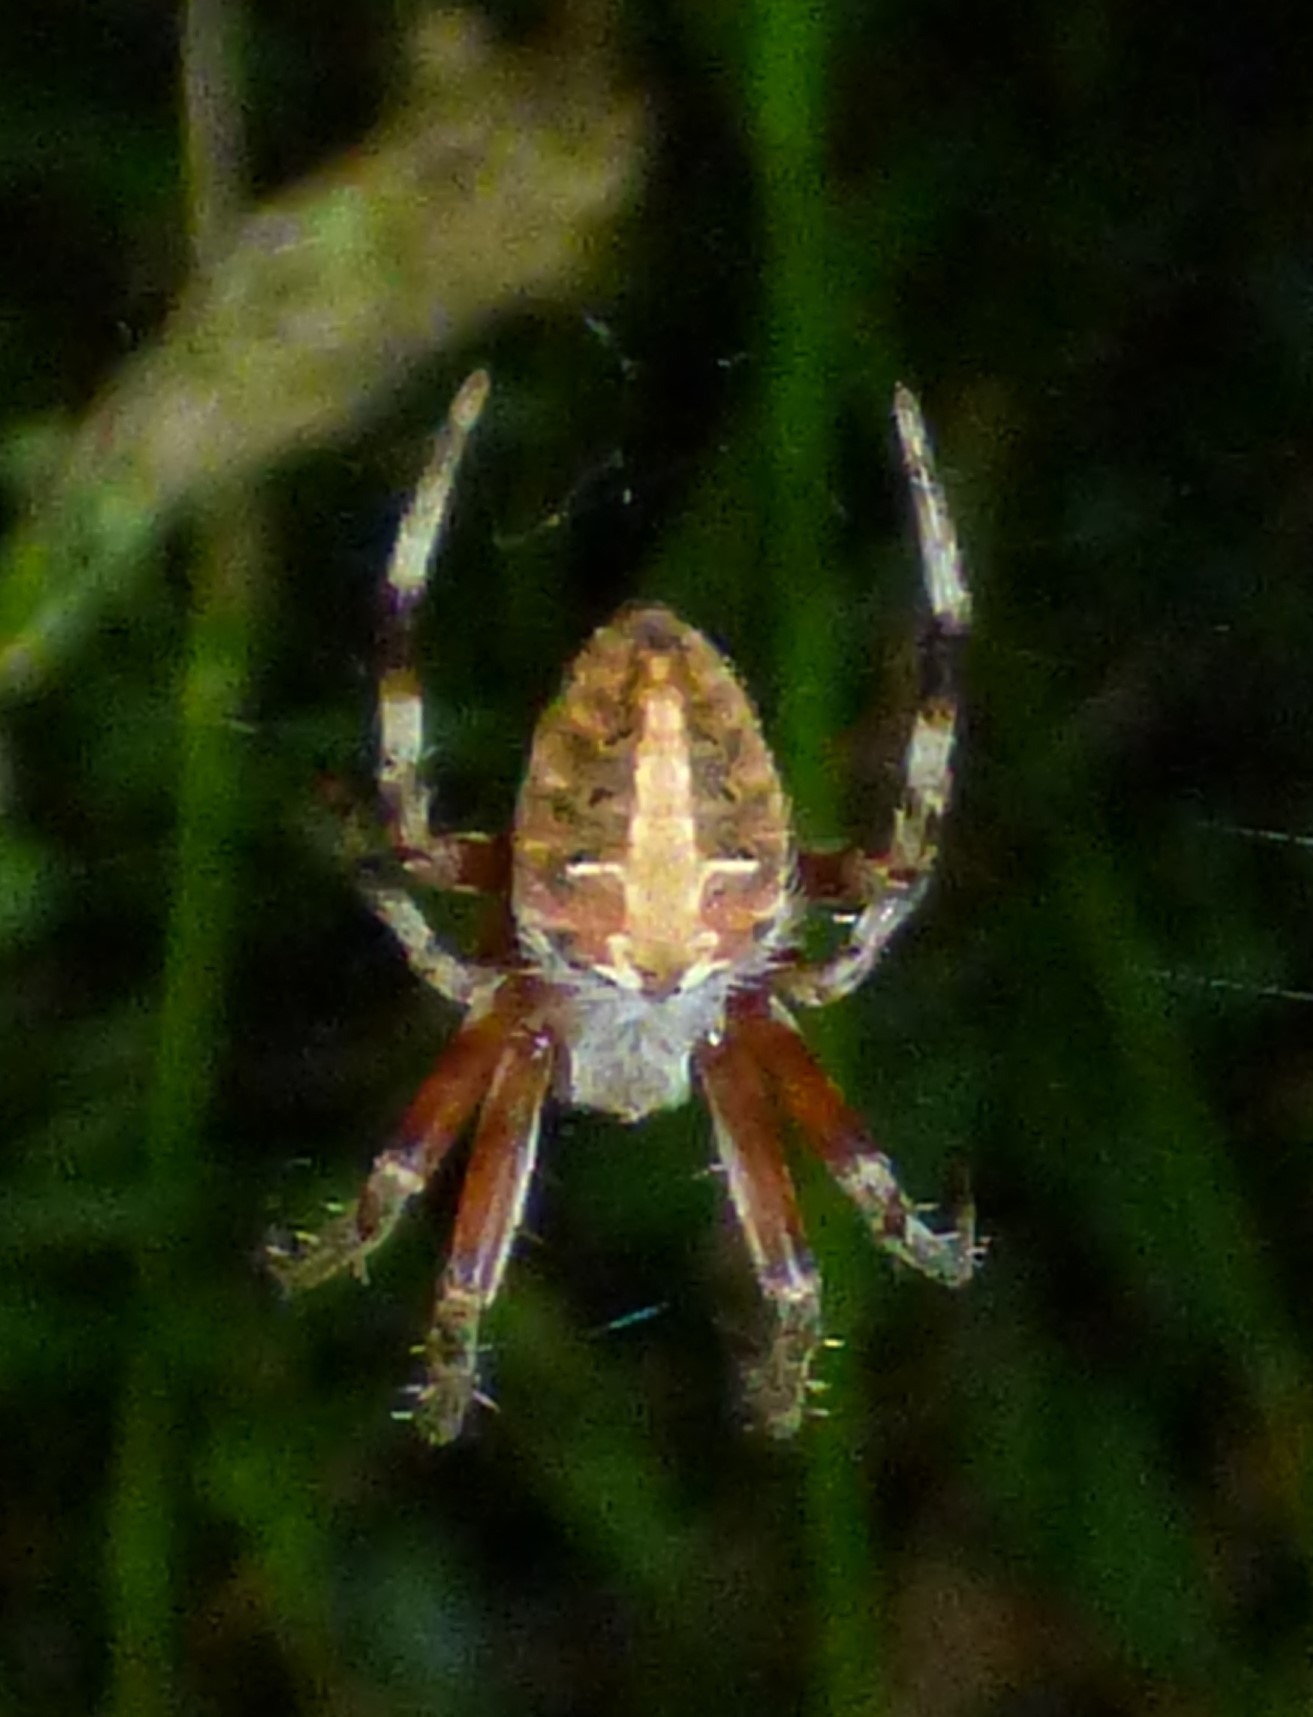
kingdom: Animalia
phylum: Arthropoda
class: Arachnida
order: Araneae
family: Araneidae
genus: Neoscona
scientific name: Neoscona domiciliorum
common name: Red-femured spotted orbweaver
